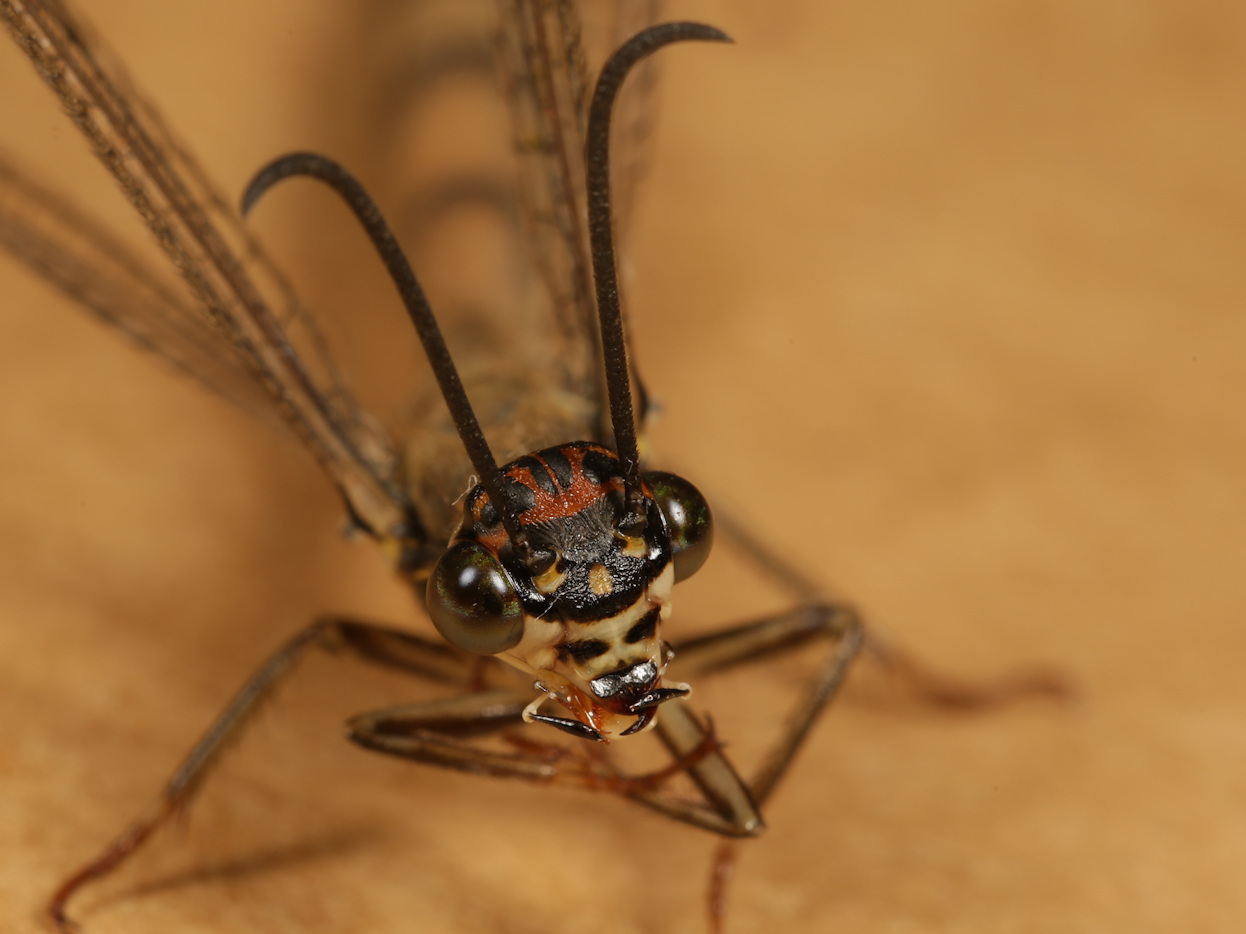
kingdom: Animalia
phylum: Arthropoda
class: Insecta
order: Neuroptera
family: Myrmeleontidae
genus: Myrmeleon
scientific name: Myrmeleon quinquemaculatus
